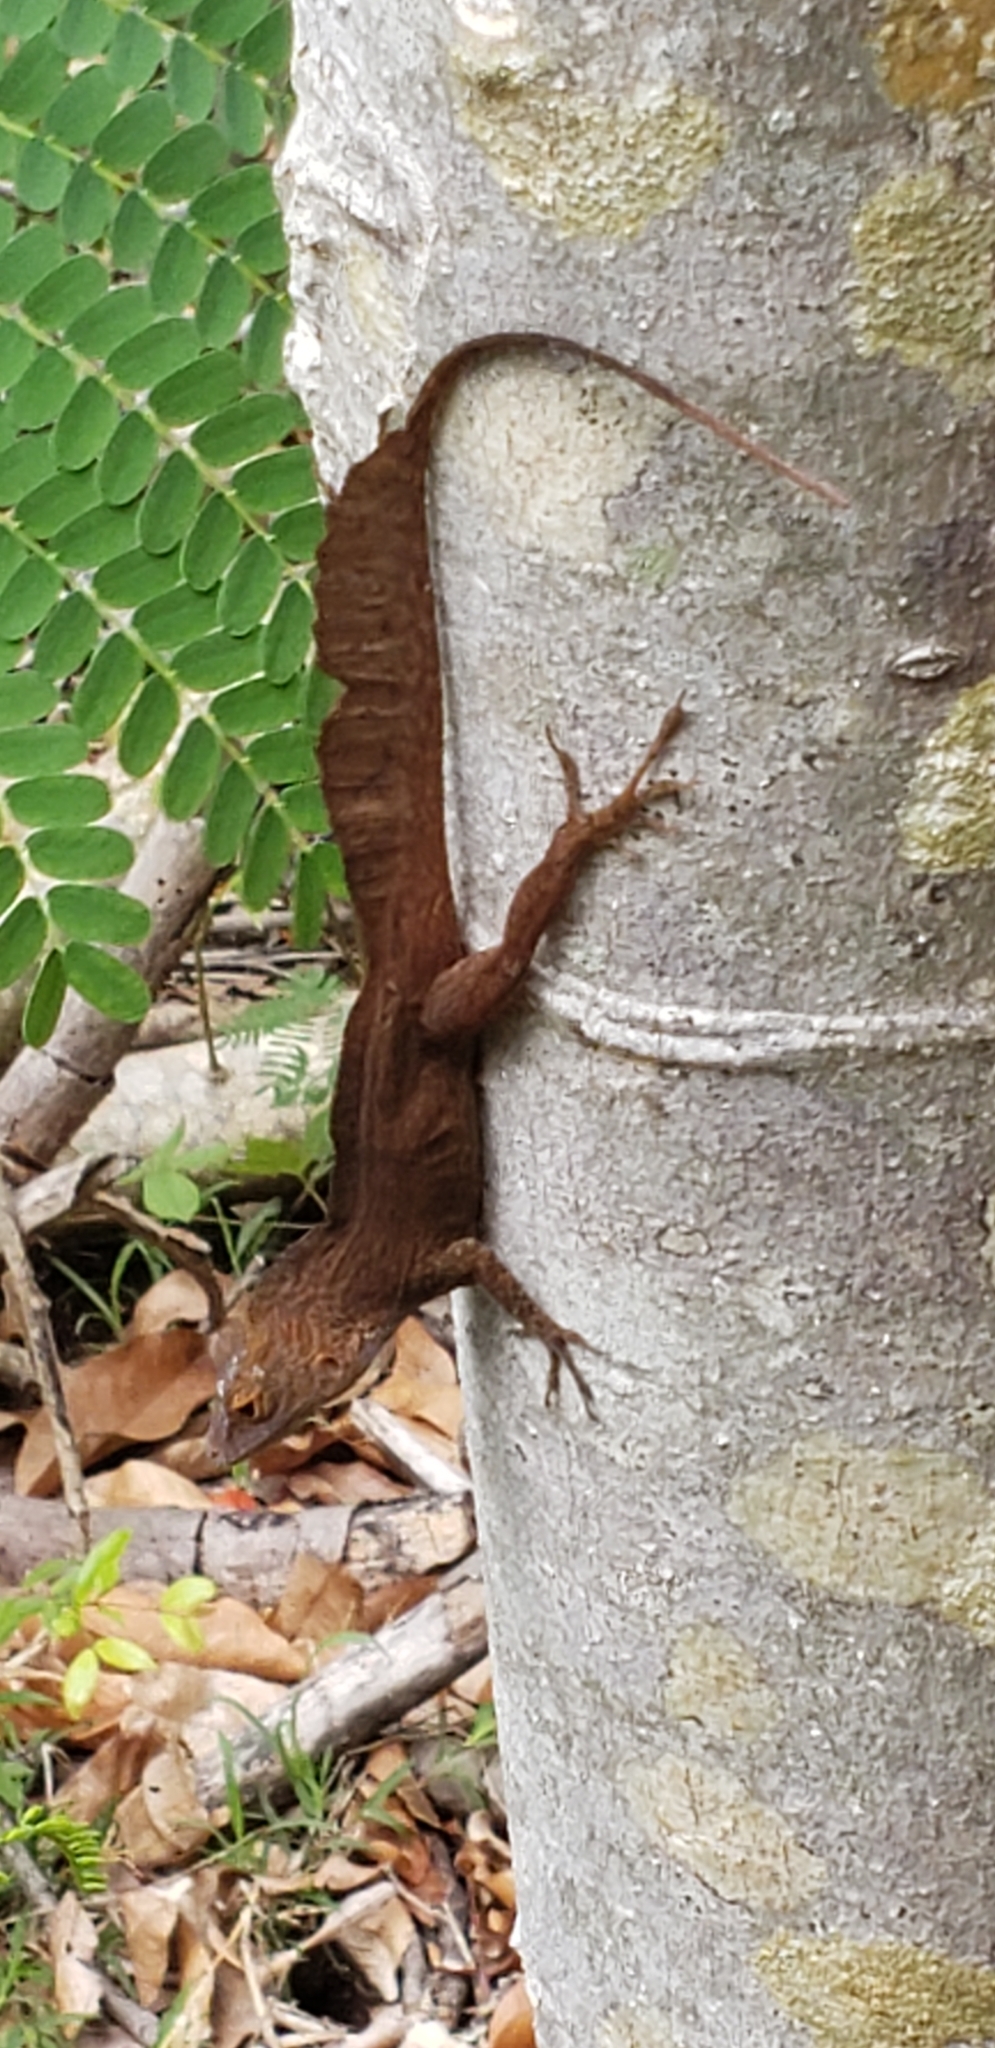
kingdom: Animalia
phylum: Chordata
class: Squamata
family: Dactyloidae
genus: Anolis
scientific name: Anolis cristatellus
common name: Crested anole
